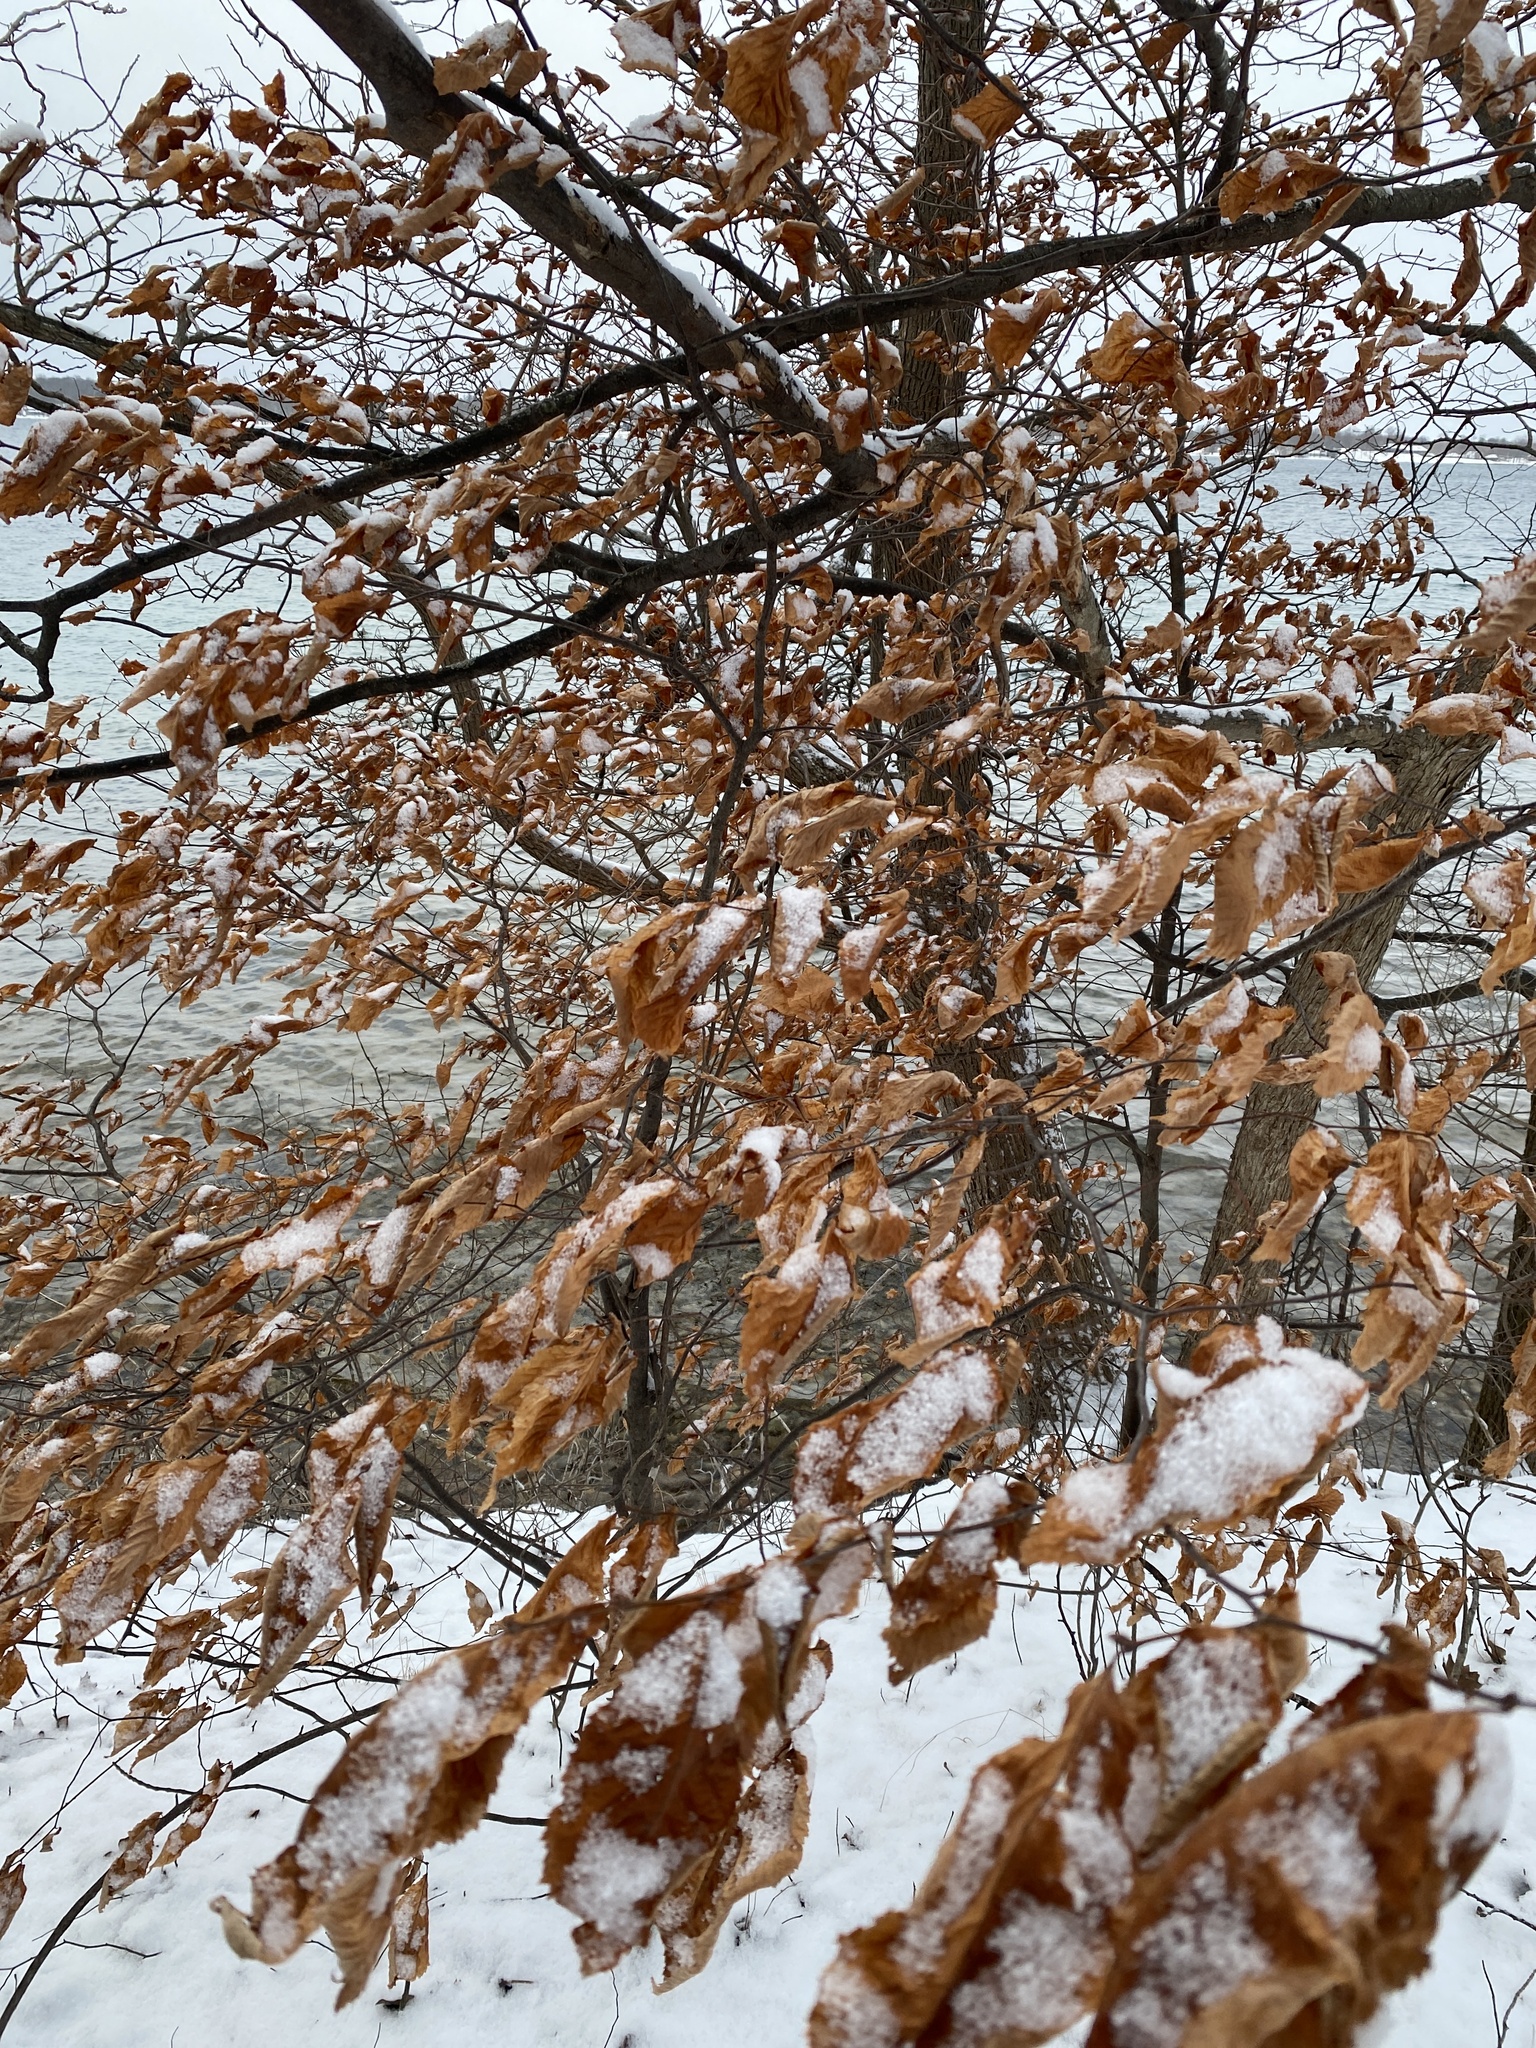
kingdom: Plantae
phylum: Tracheophyta
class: Magnoliopsida
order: Fagales
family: Betulaceae
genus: Ostrya
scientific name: Ostrya virginiana
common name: Ironwood
